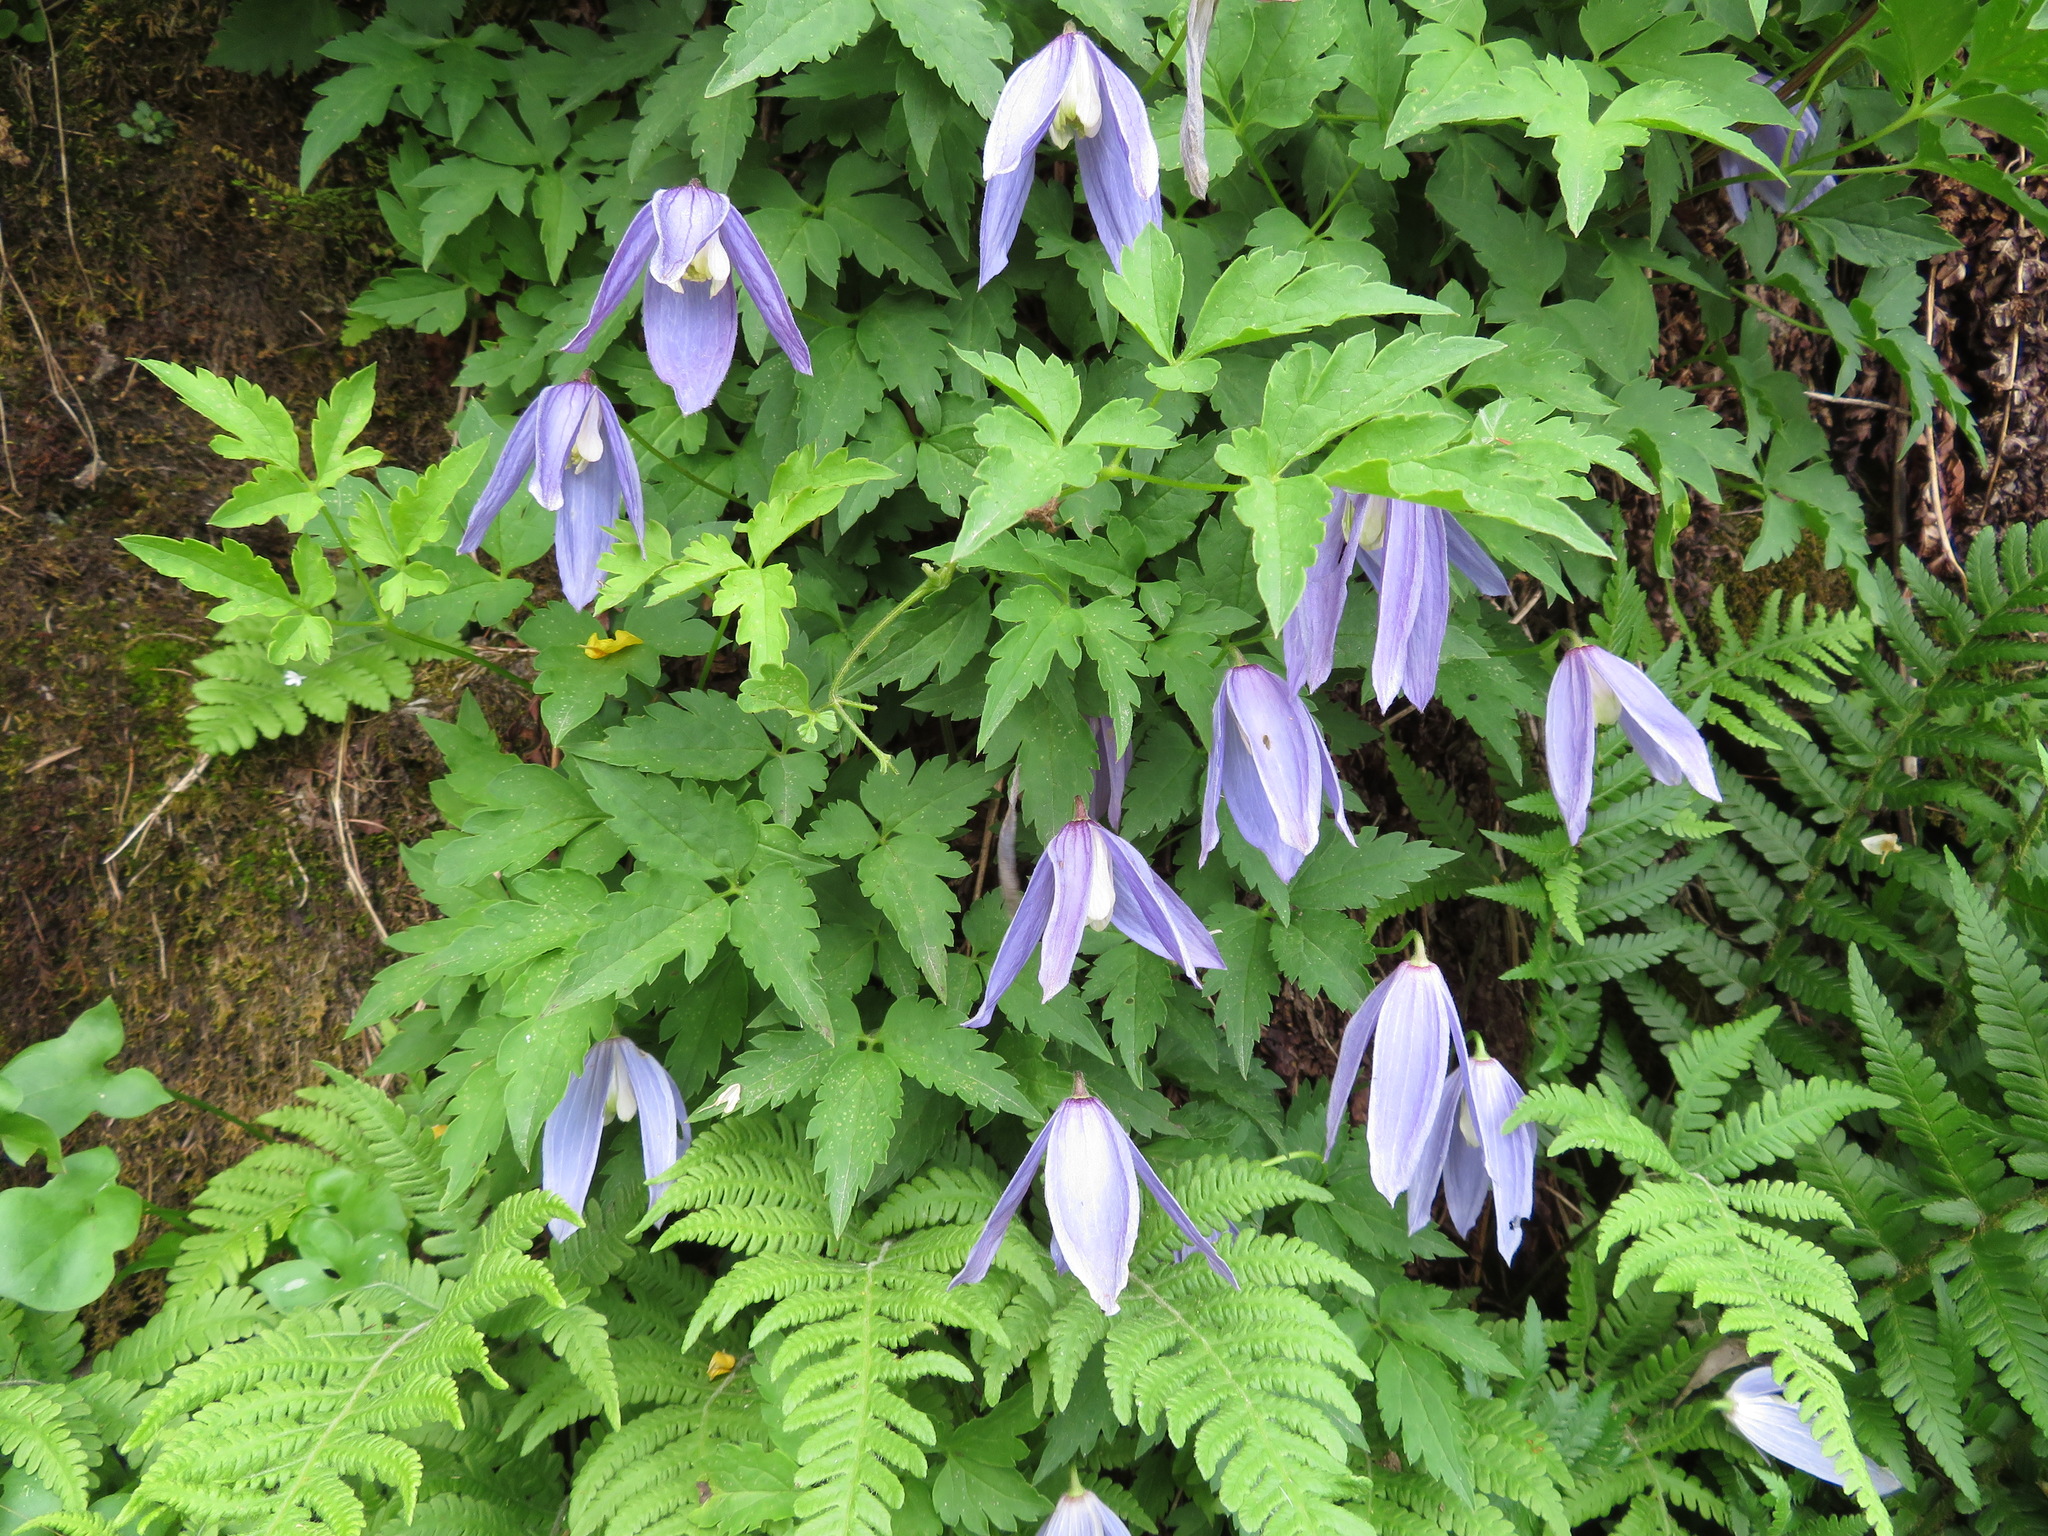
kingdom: Plantae
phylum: Tracheophyta
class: Magnoliopsida
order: Ranunculales
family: Ranunculaceae
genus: Clematis
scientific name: Clematis alpina
